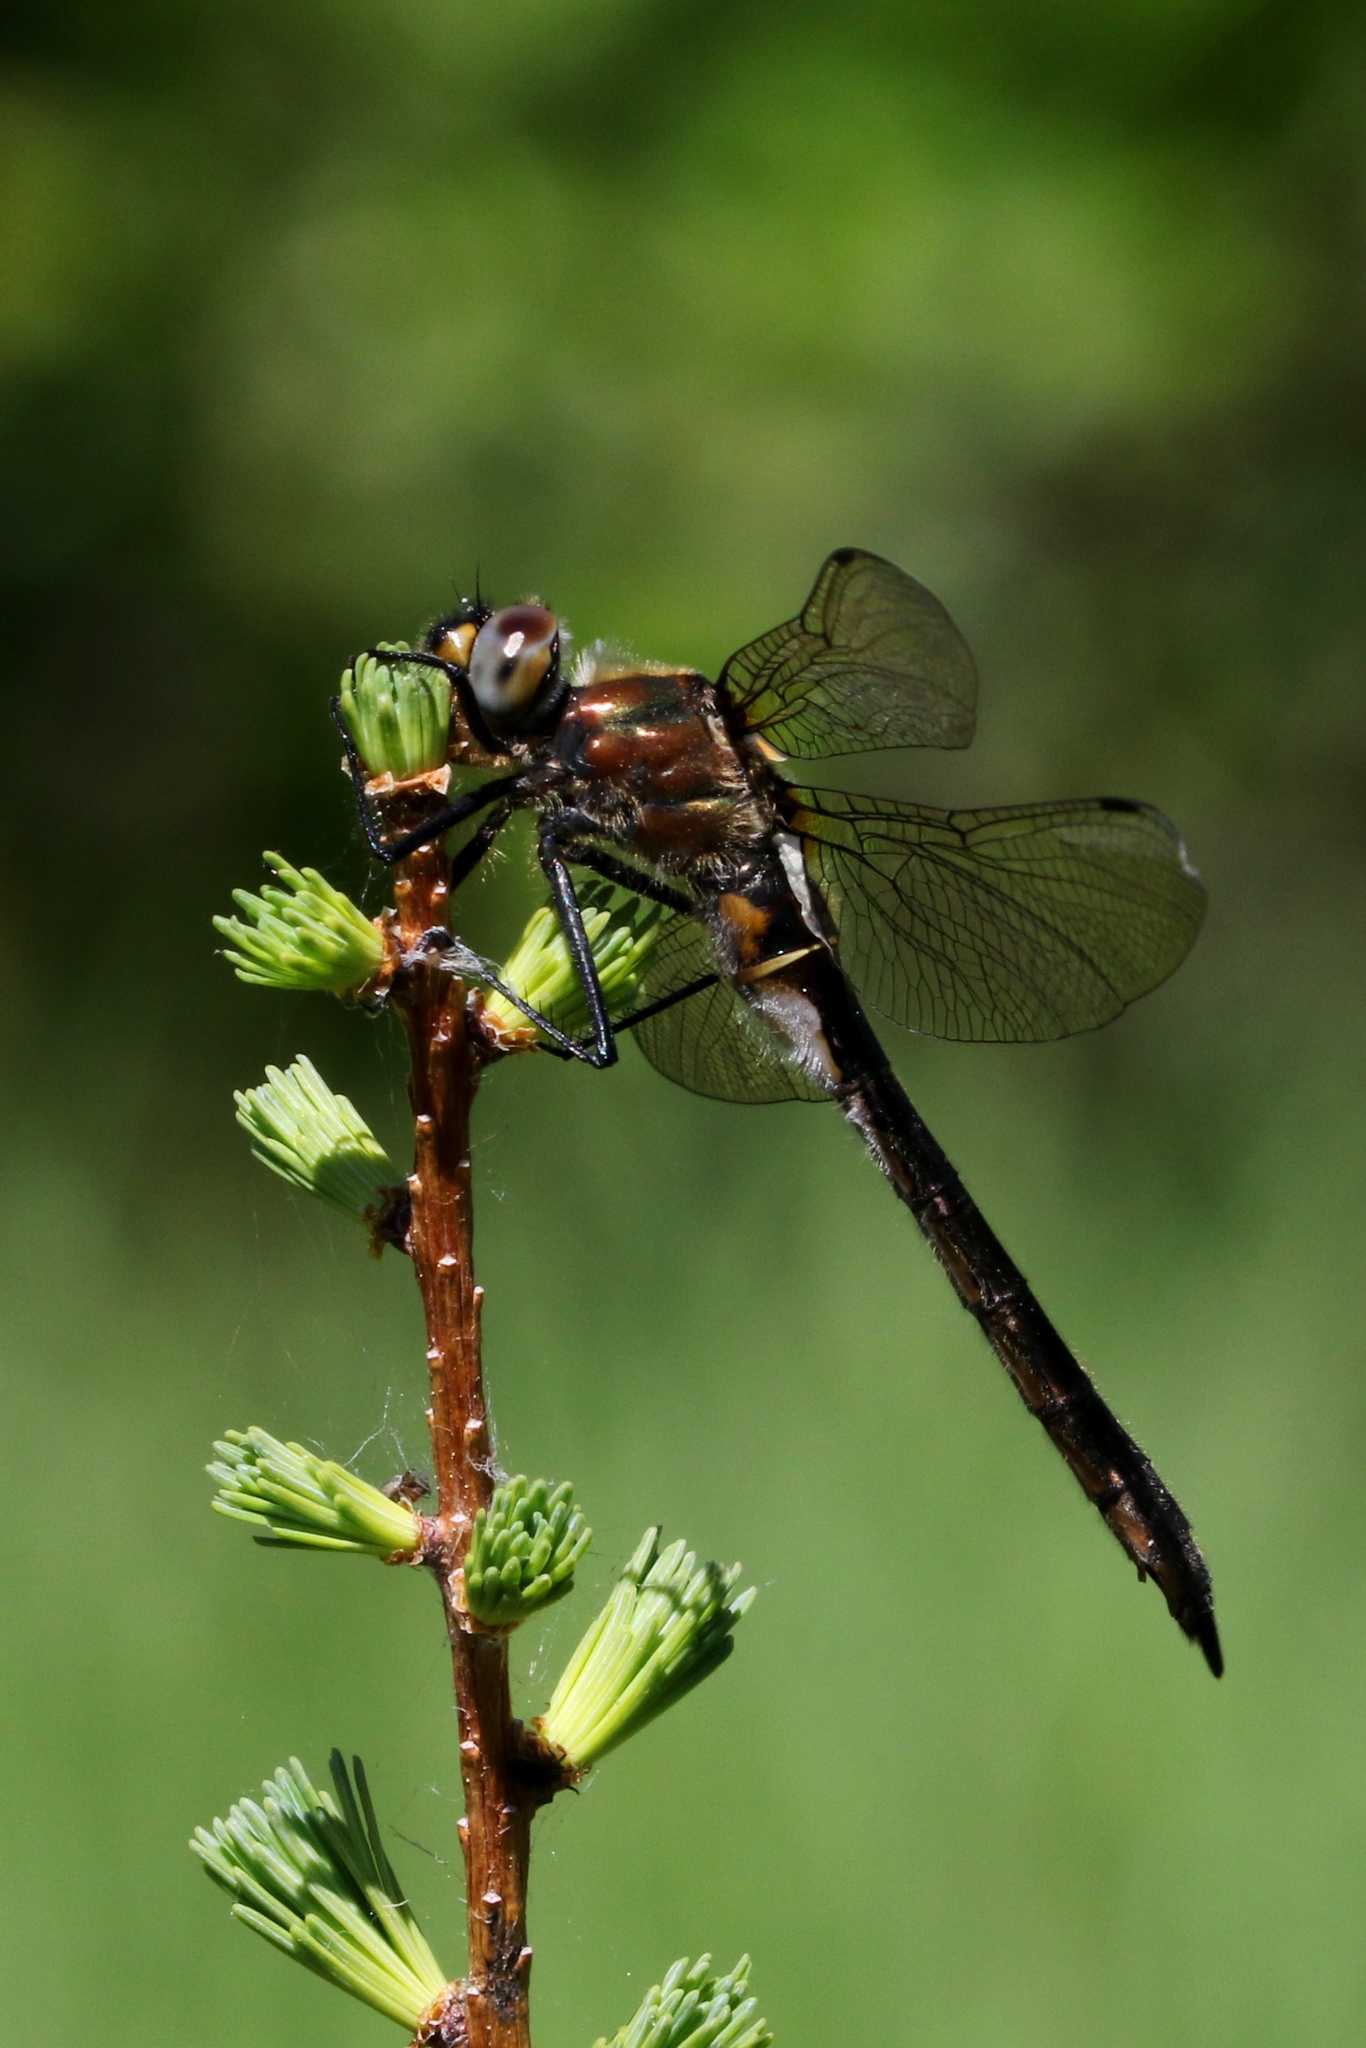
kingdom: Animalia
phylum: Arthropoda
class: Insecta
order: Odonata
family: Corduliidae
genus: Cordulia
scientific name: Cordulia shurtleffii
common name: American emerald
